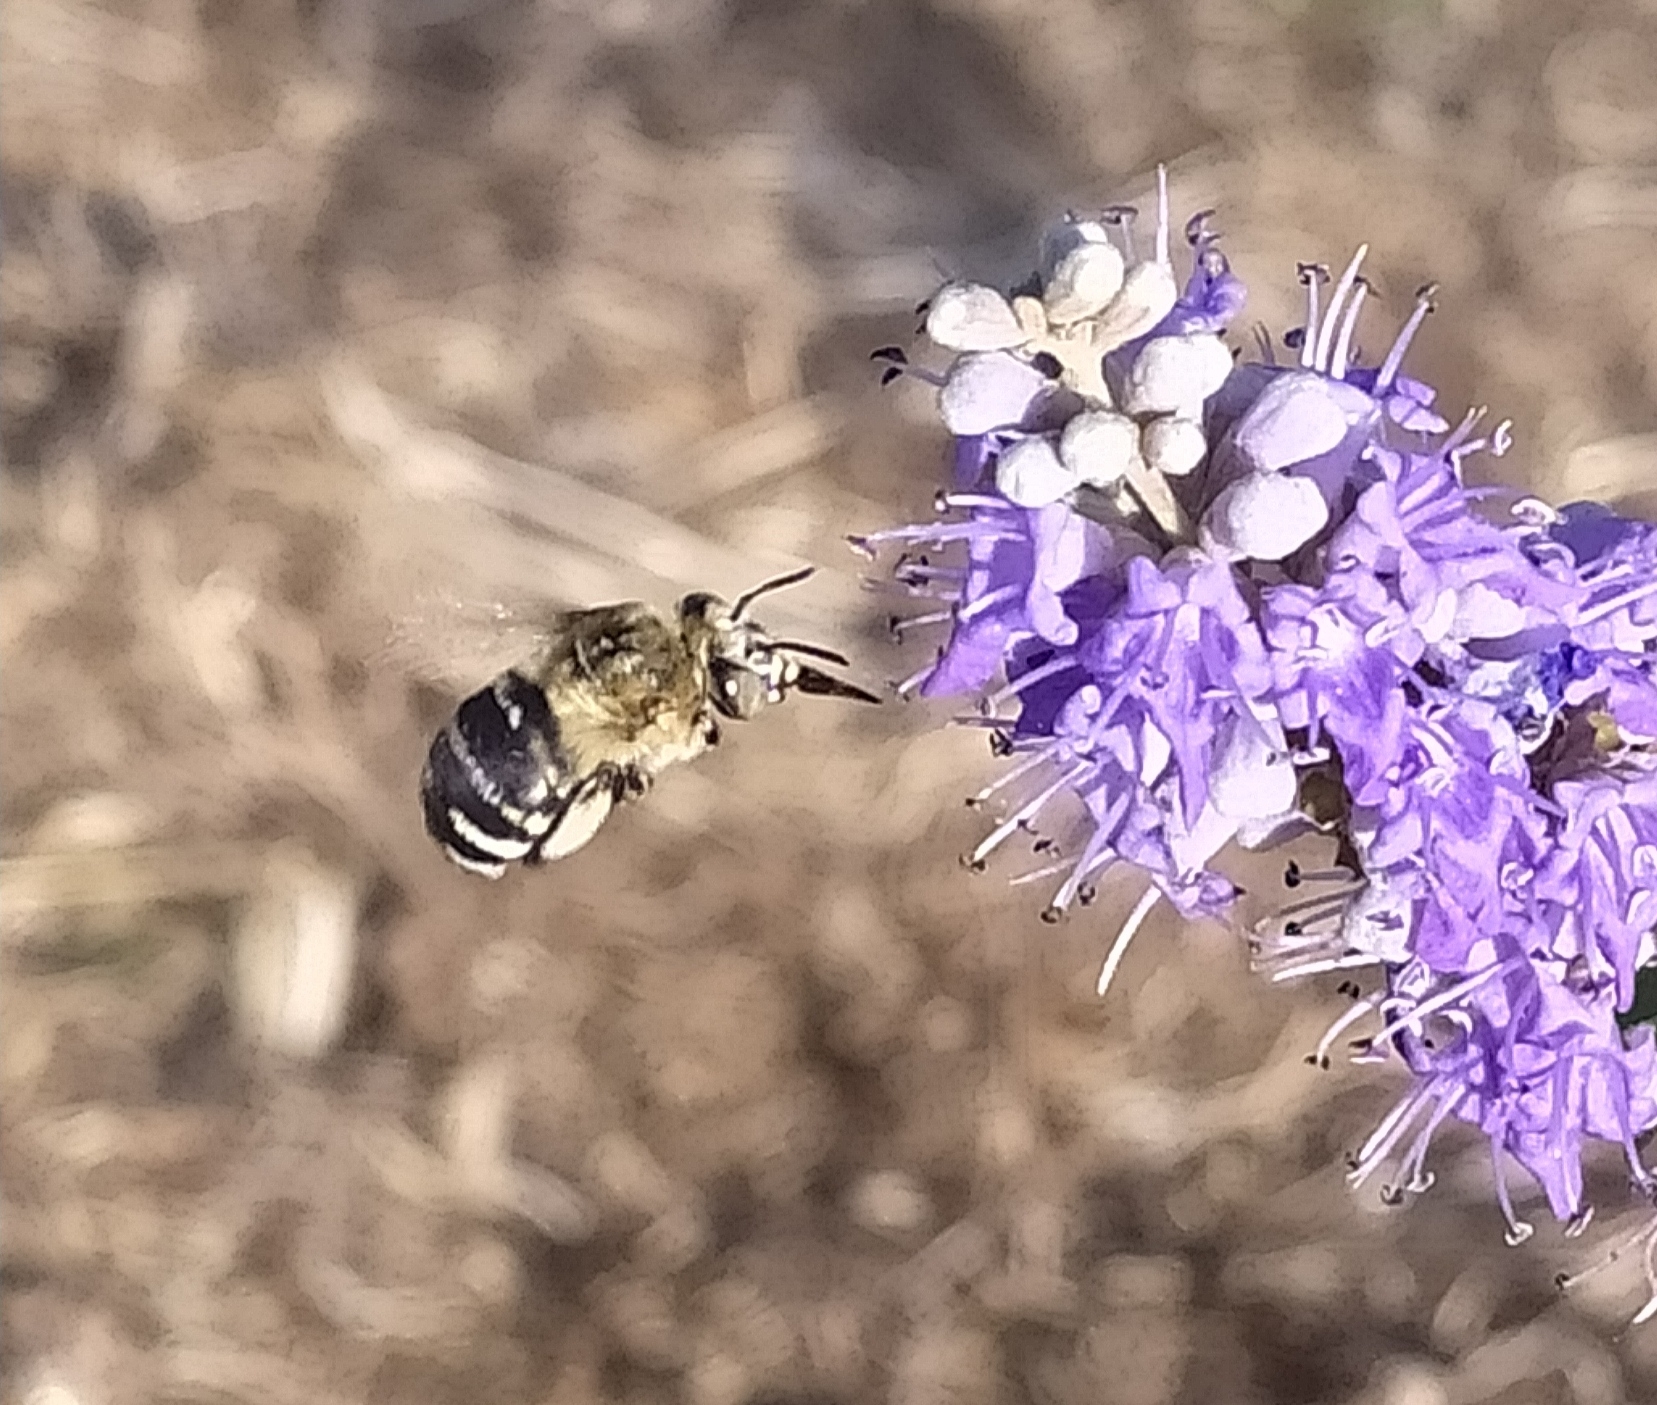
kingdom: Animalia
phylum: Arthropoda
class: Insecta
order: Hymenoptera
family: Apidae
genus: Amegilla
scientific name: Amegilla quadrifasciata
